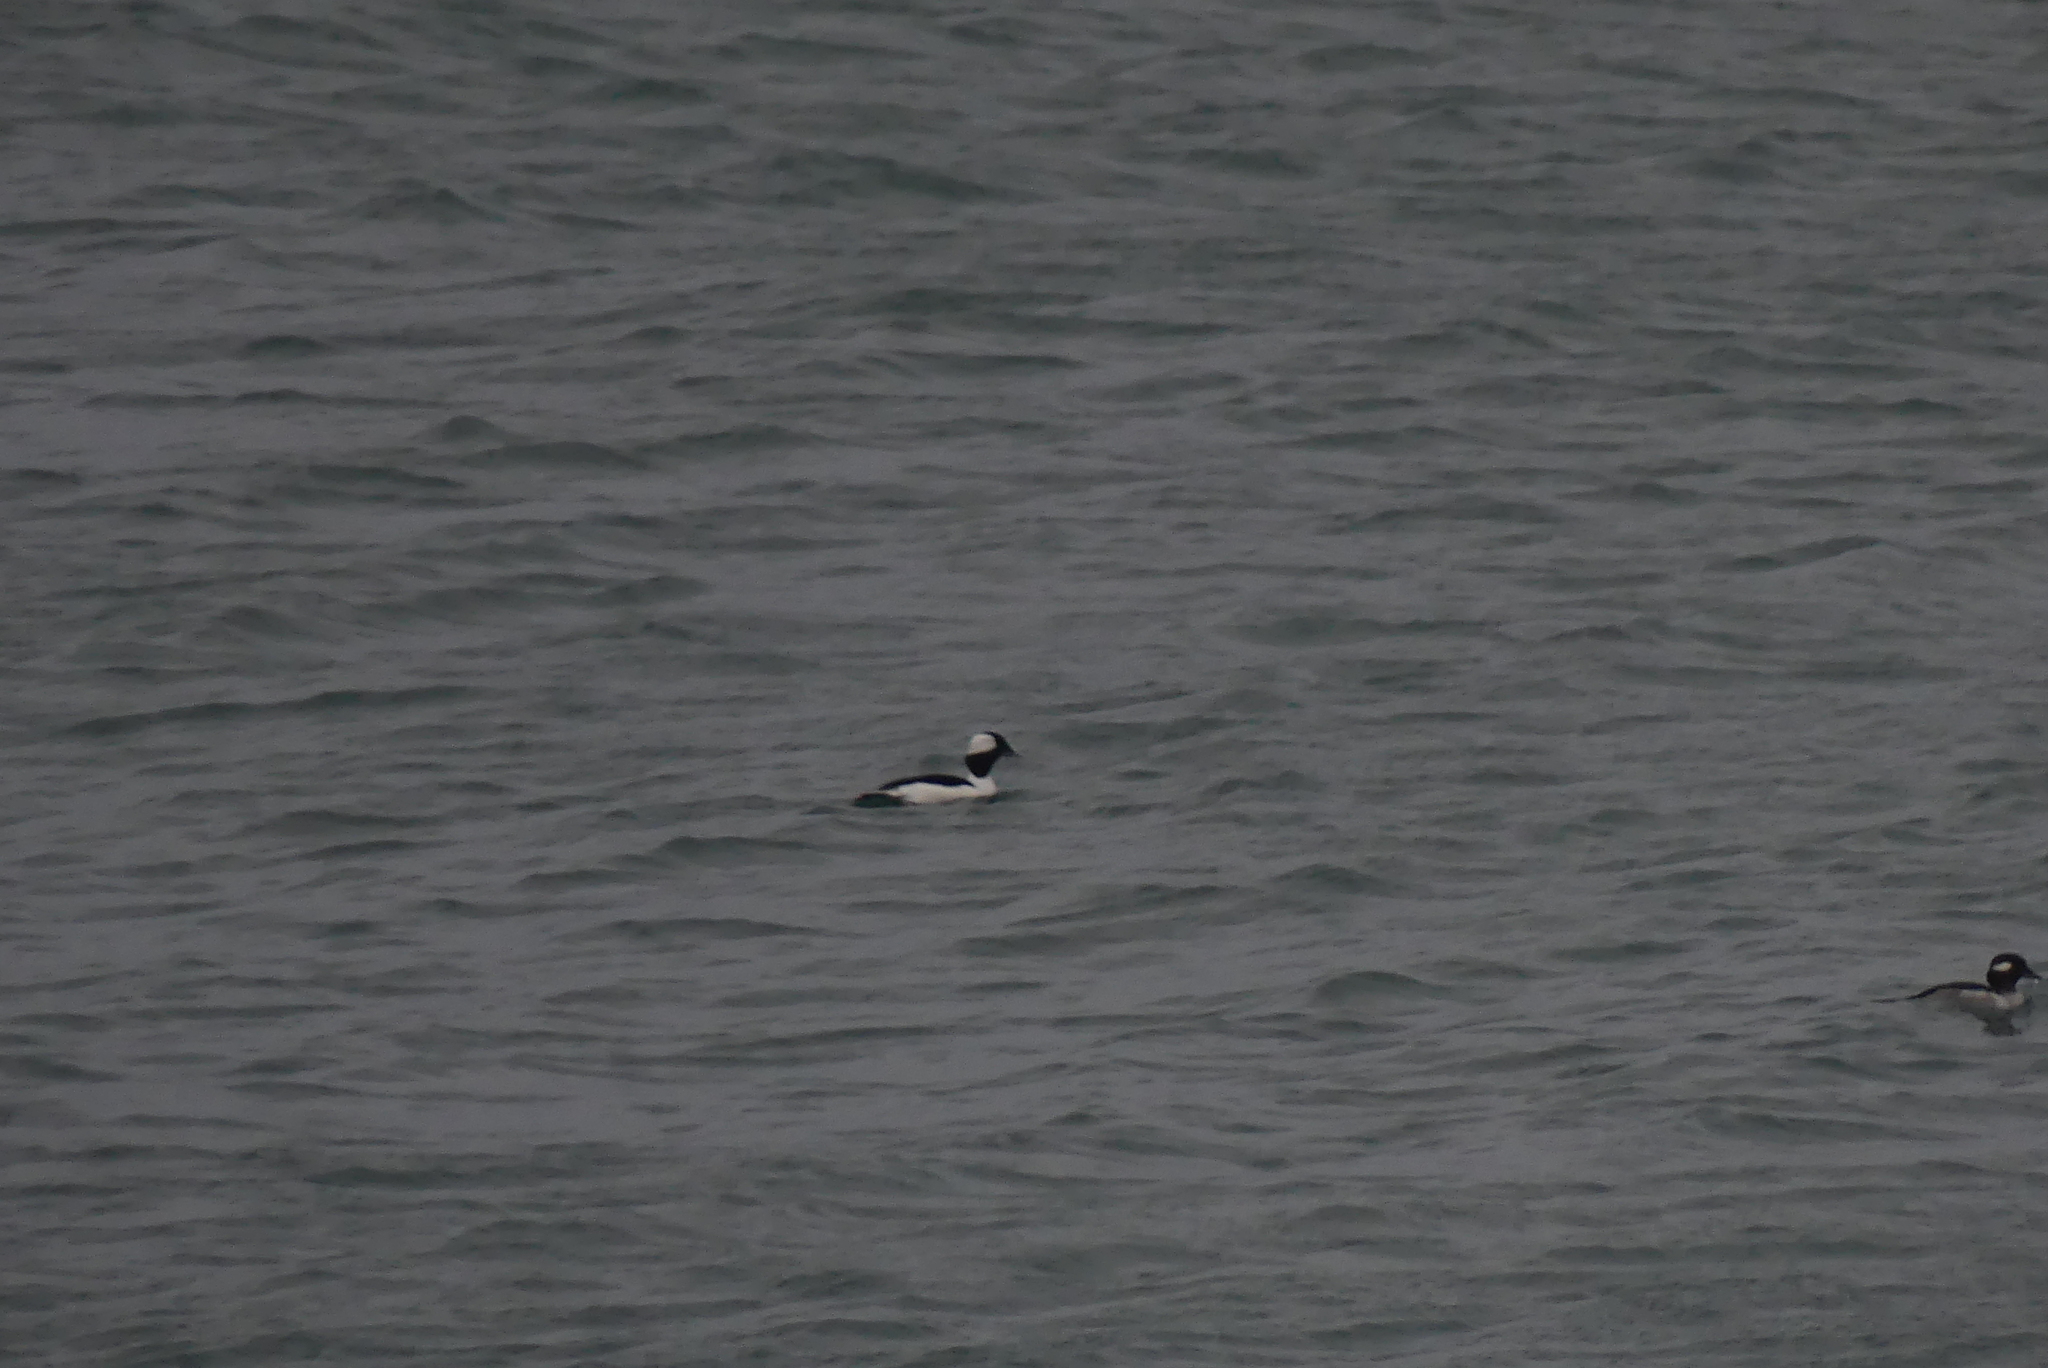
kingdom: Animalia
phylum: Chordata
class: Aves
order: Anseriformes
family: Anatidae
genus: Bucephala
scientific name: Bucephala albeola
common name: Bufflehead
